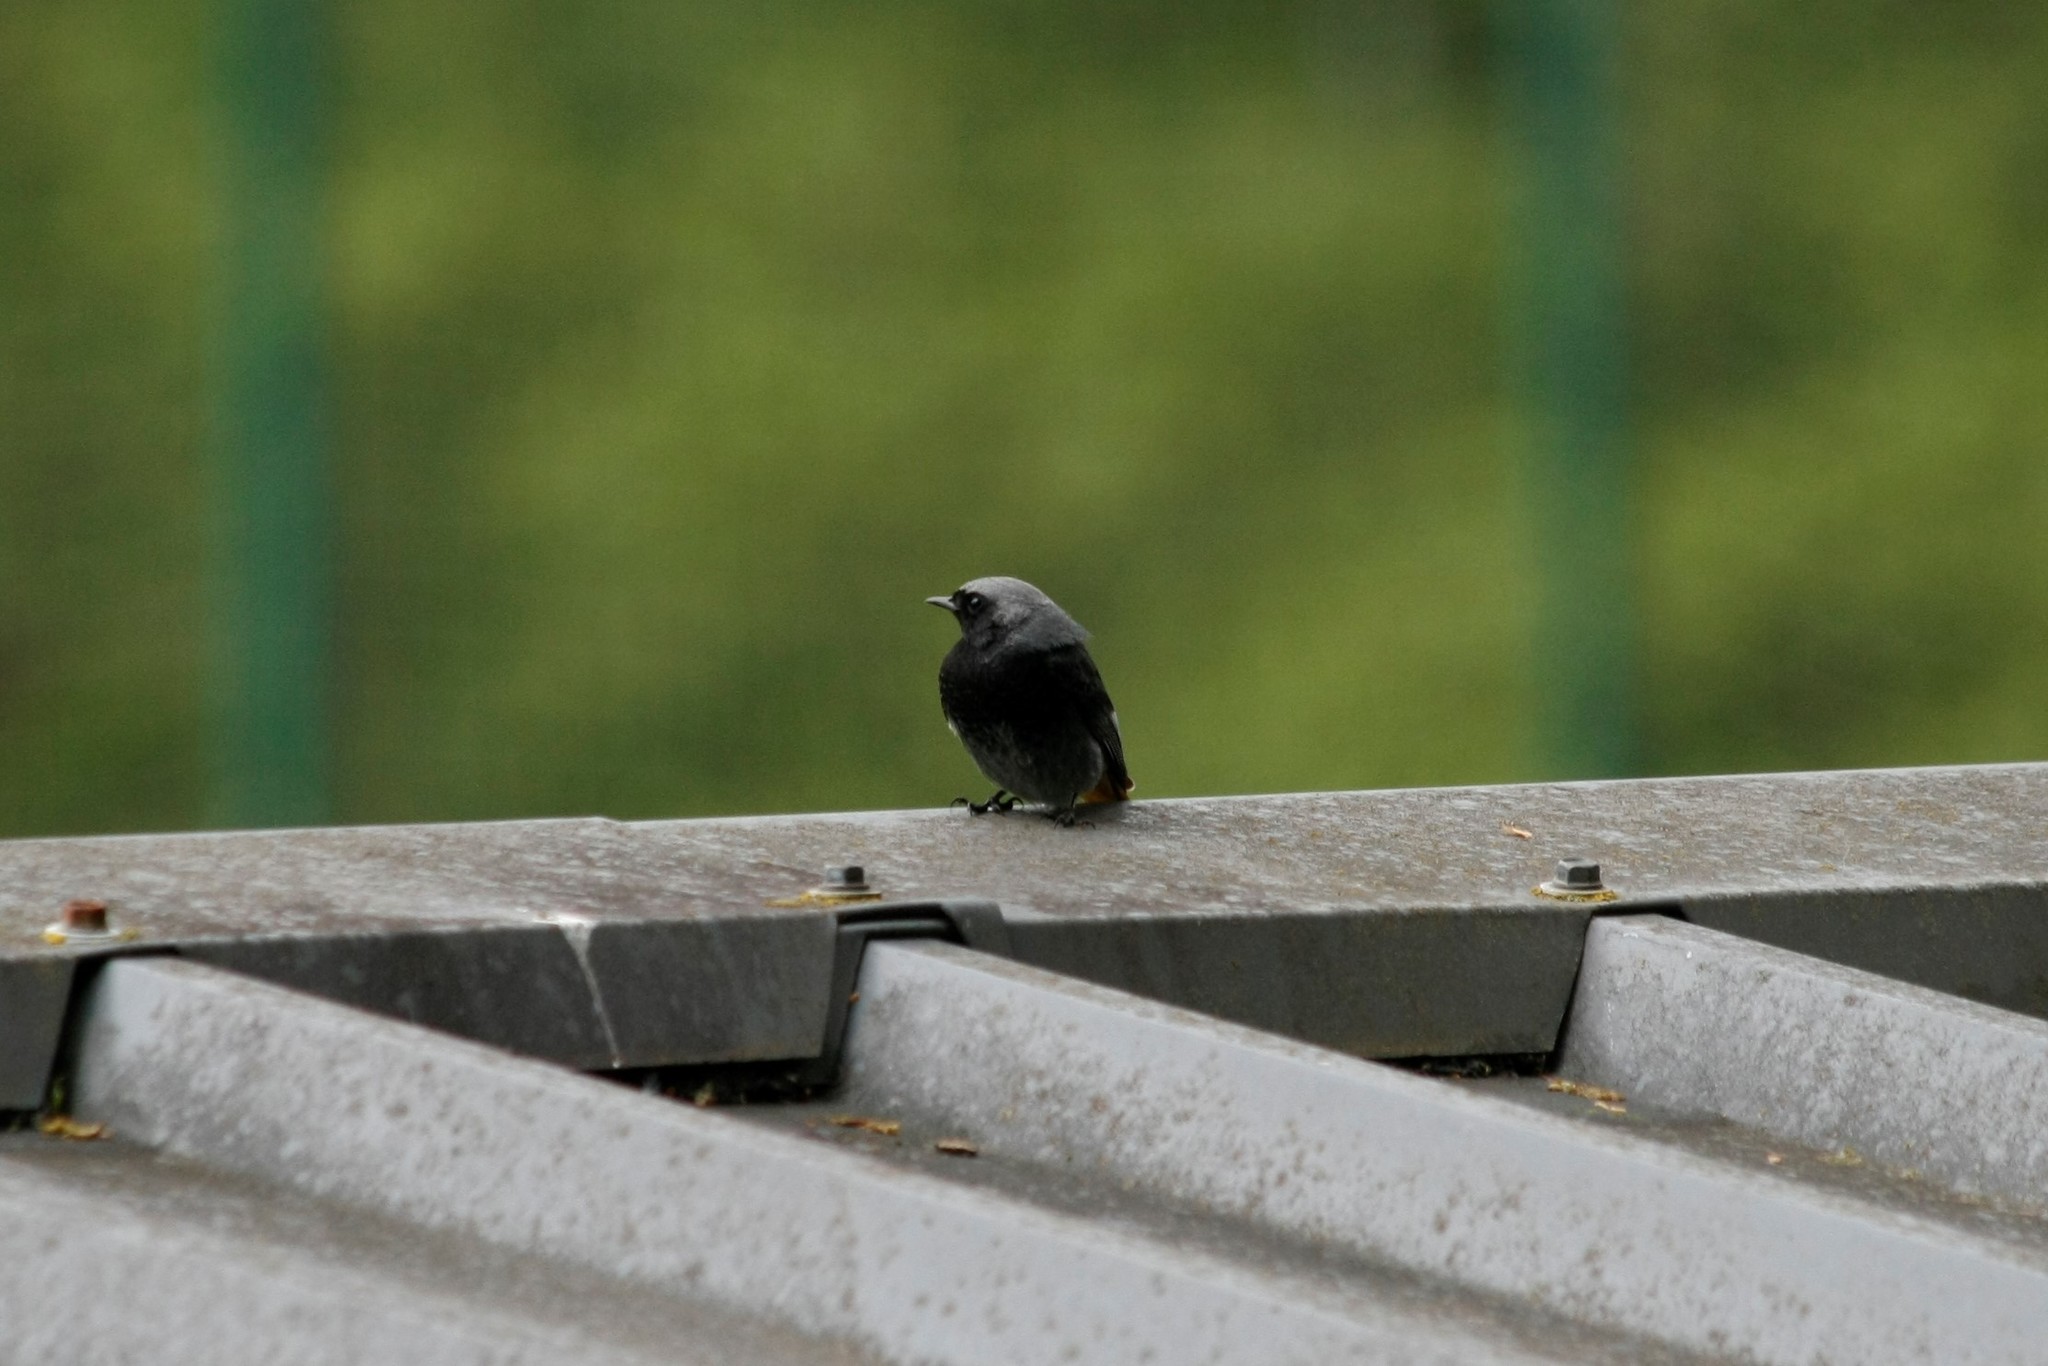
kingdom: Animalia
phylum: Chordata
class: Aves
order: Passeriformes
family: Muscicapidae
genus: Phoenicurus
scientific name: Phoenicurus ochruros
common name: Black redstart
